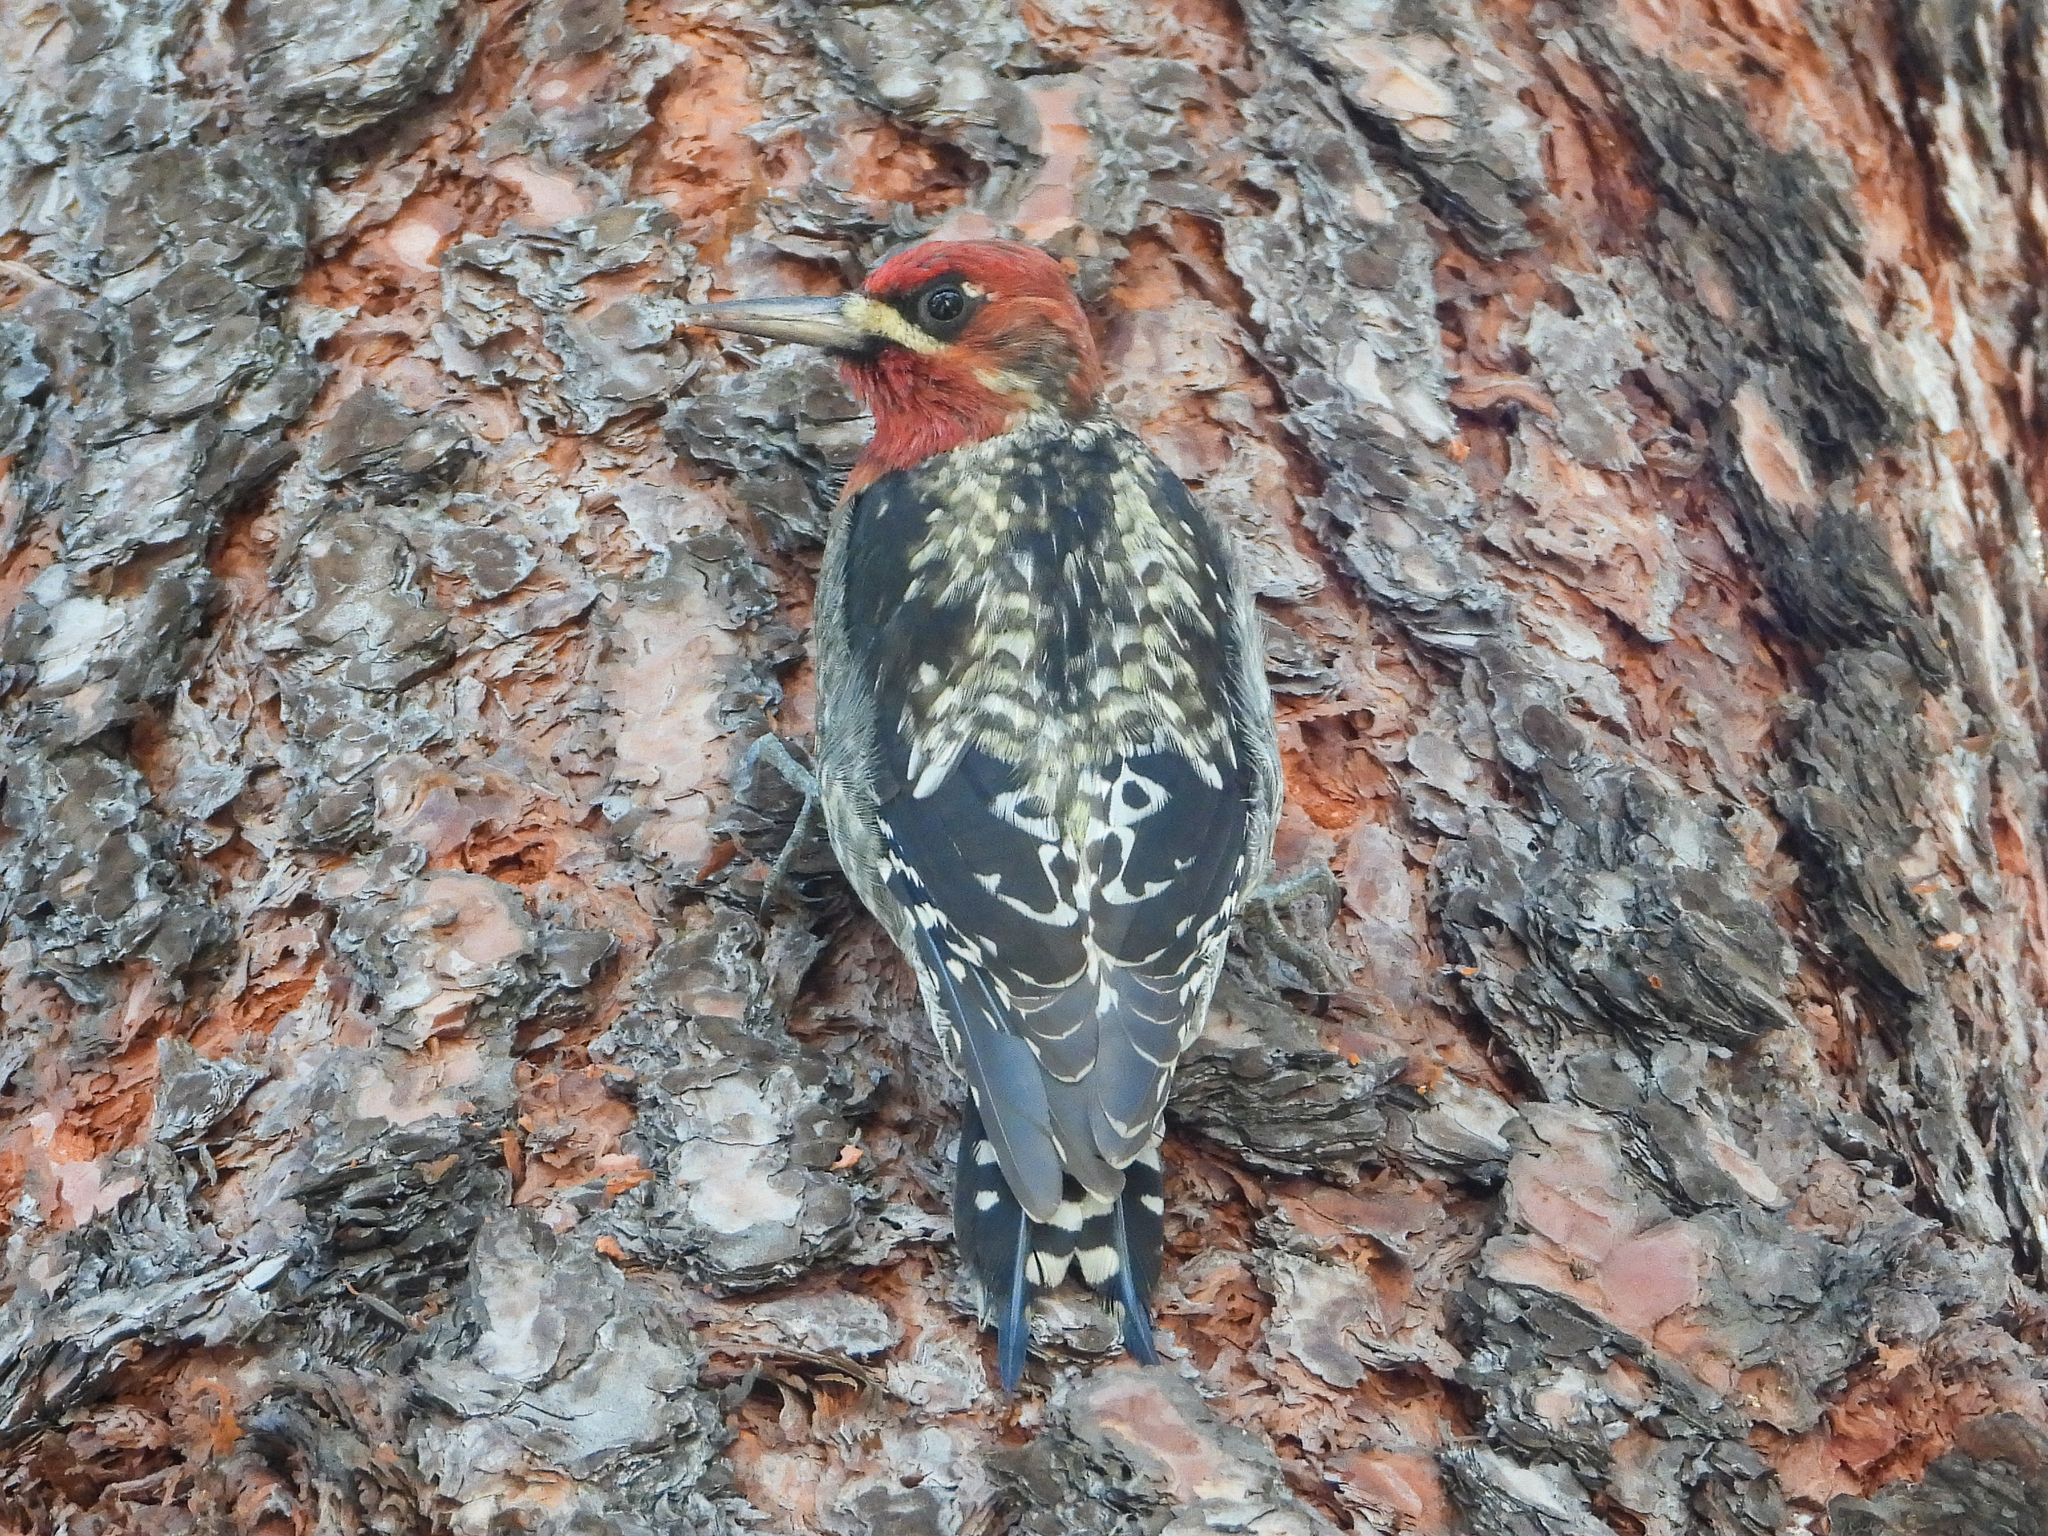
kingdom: Animalia
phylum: Chordata
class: Aves
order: Piciformes
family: Picidae
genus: Sphyrapicus
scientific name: Sphyrapicus ruber
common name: Red-breasted sapsucker
